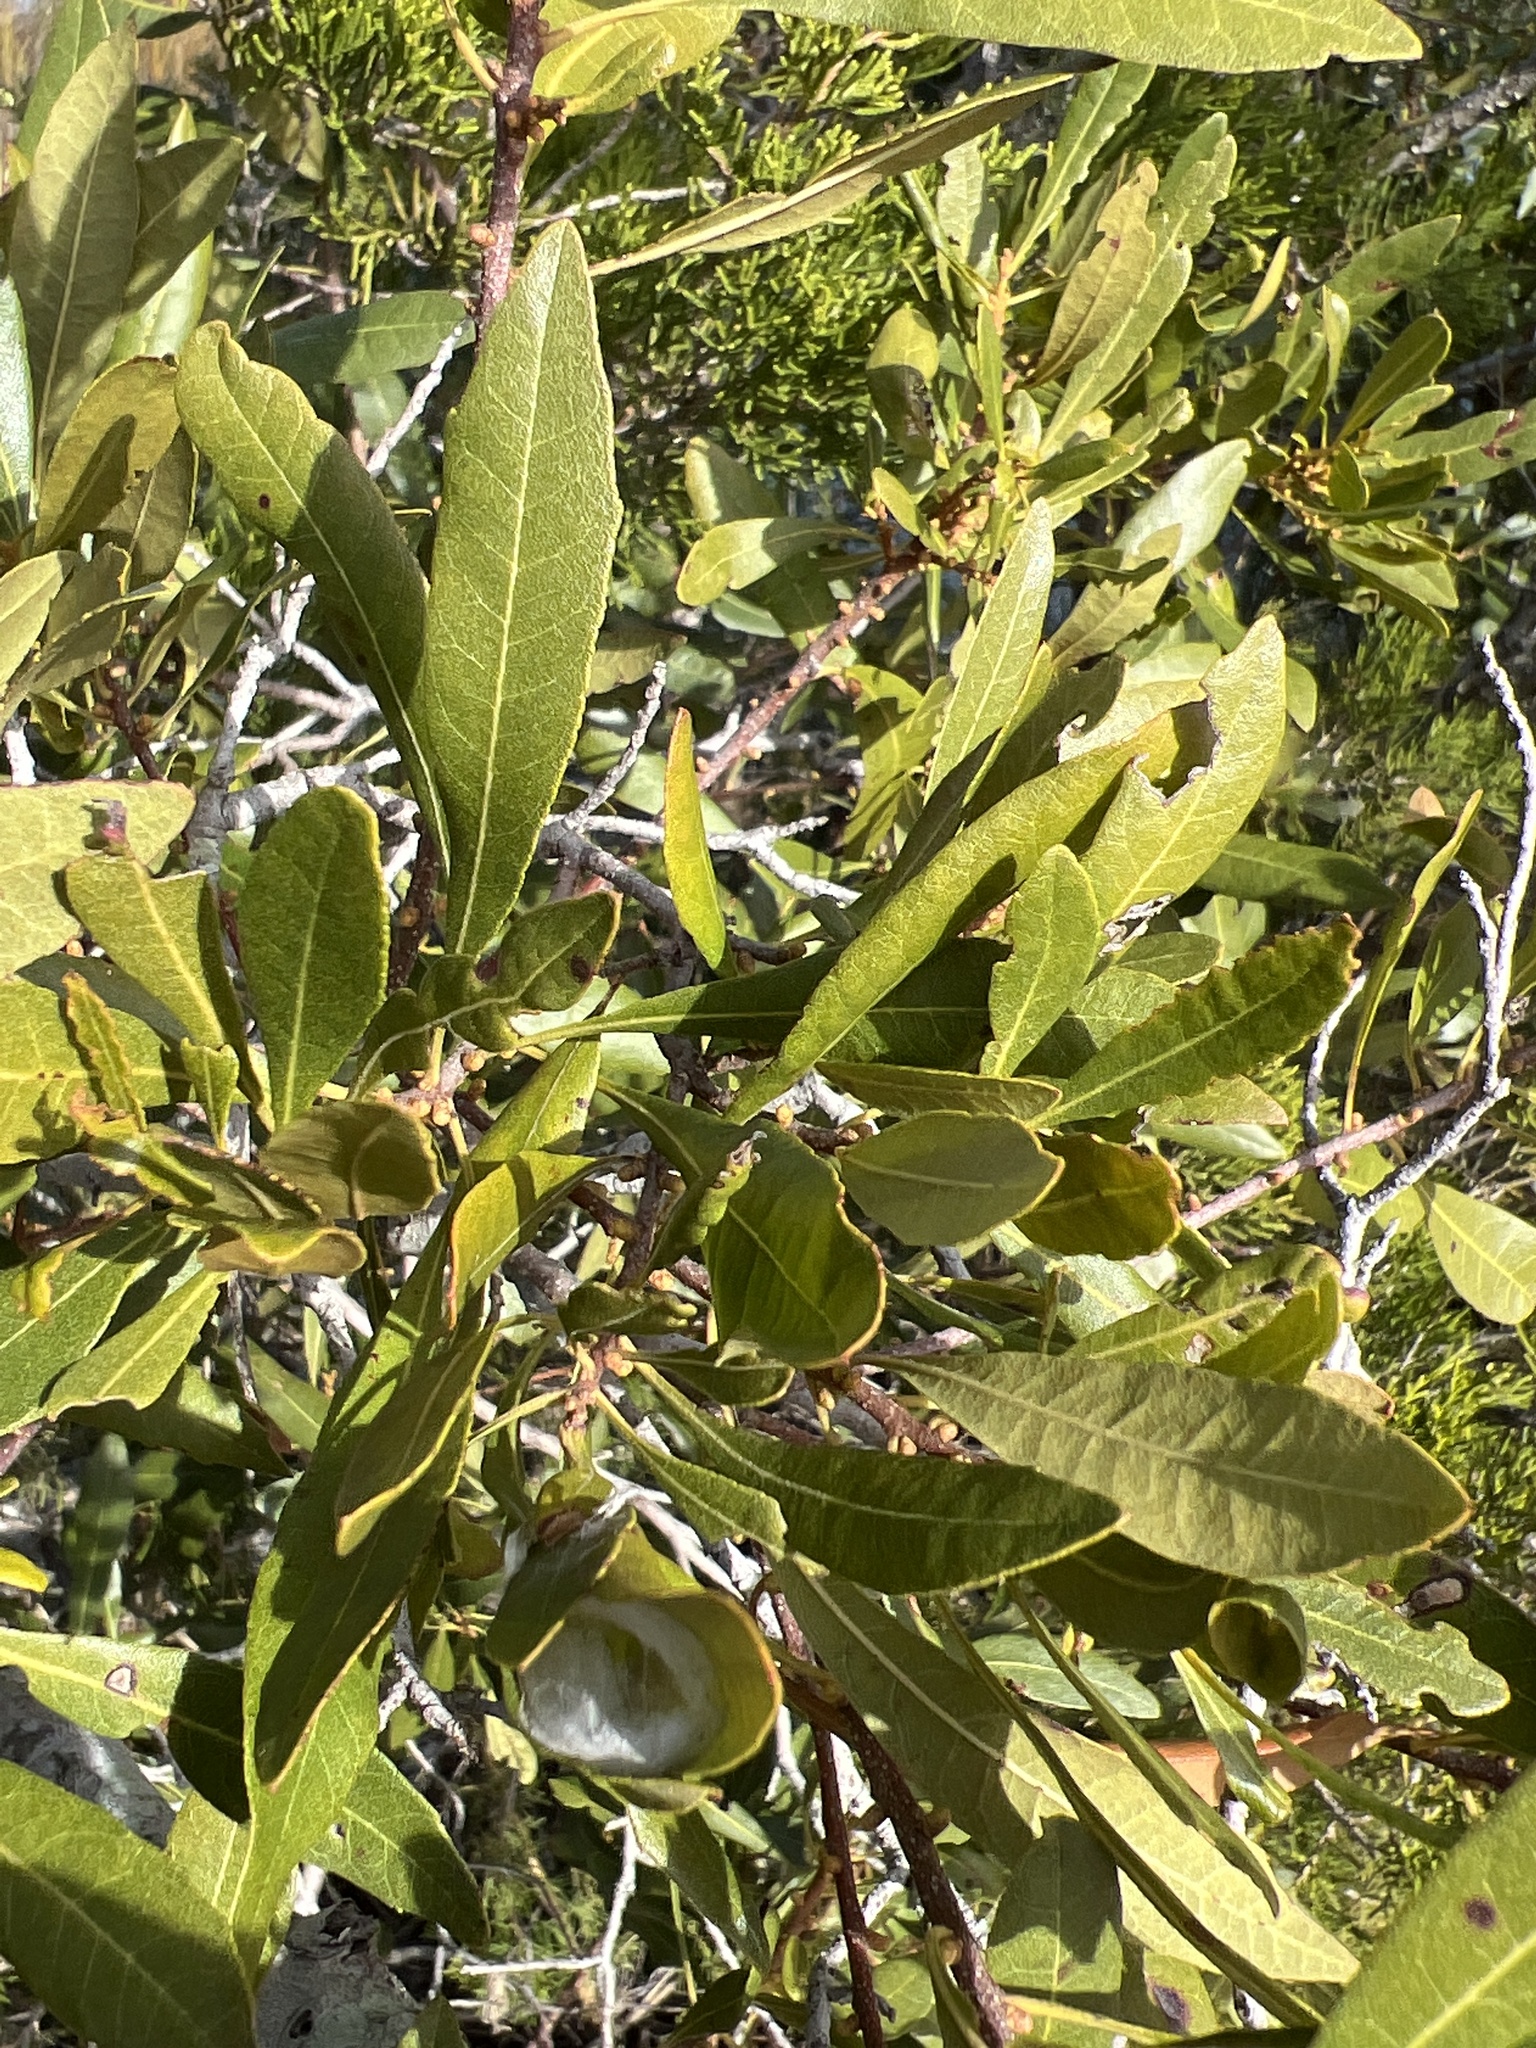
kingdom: Plantae
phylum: Tracheophyta
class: Magnoliopsida
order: Fagales
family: Myricaceae
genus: Morella
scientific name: Morella cerifera
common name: Wax myrtle
